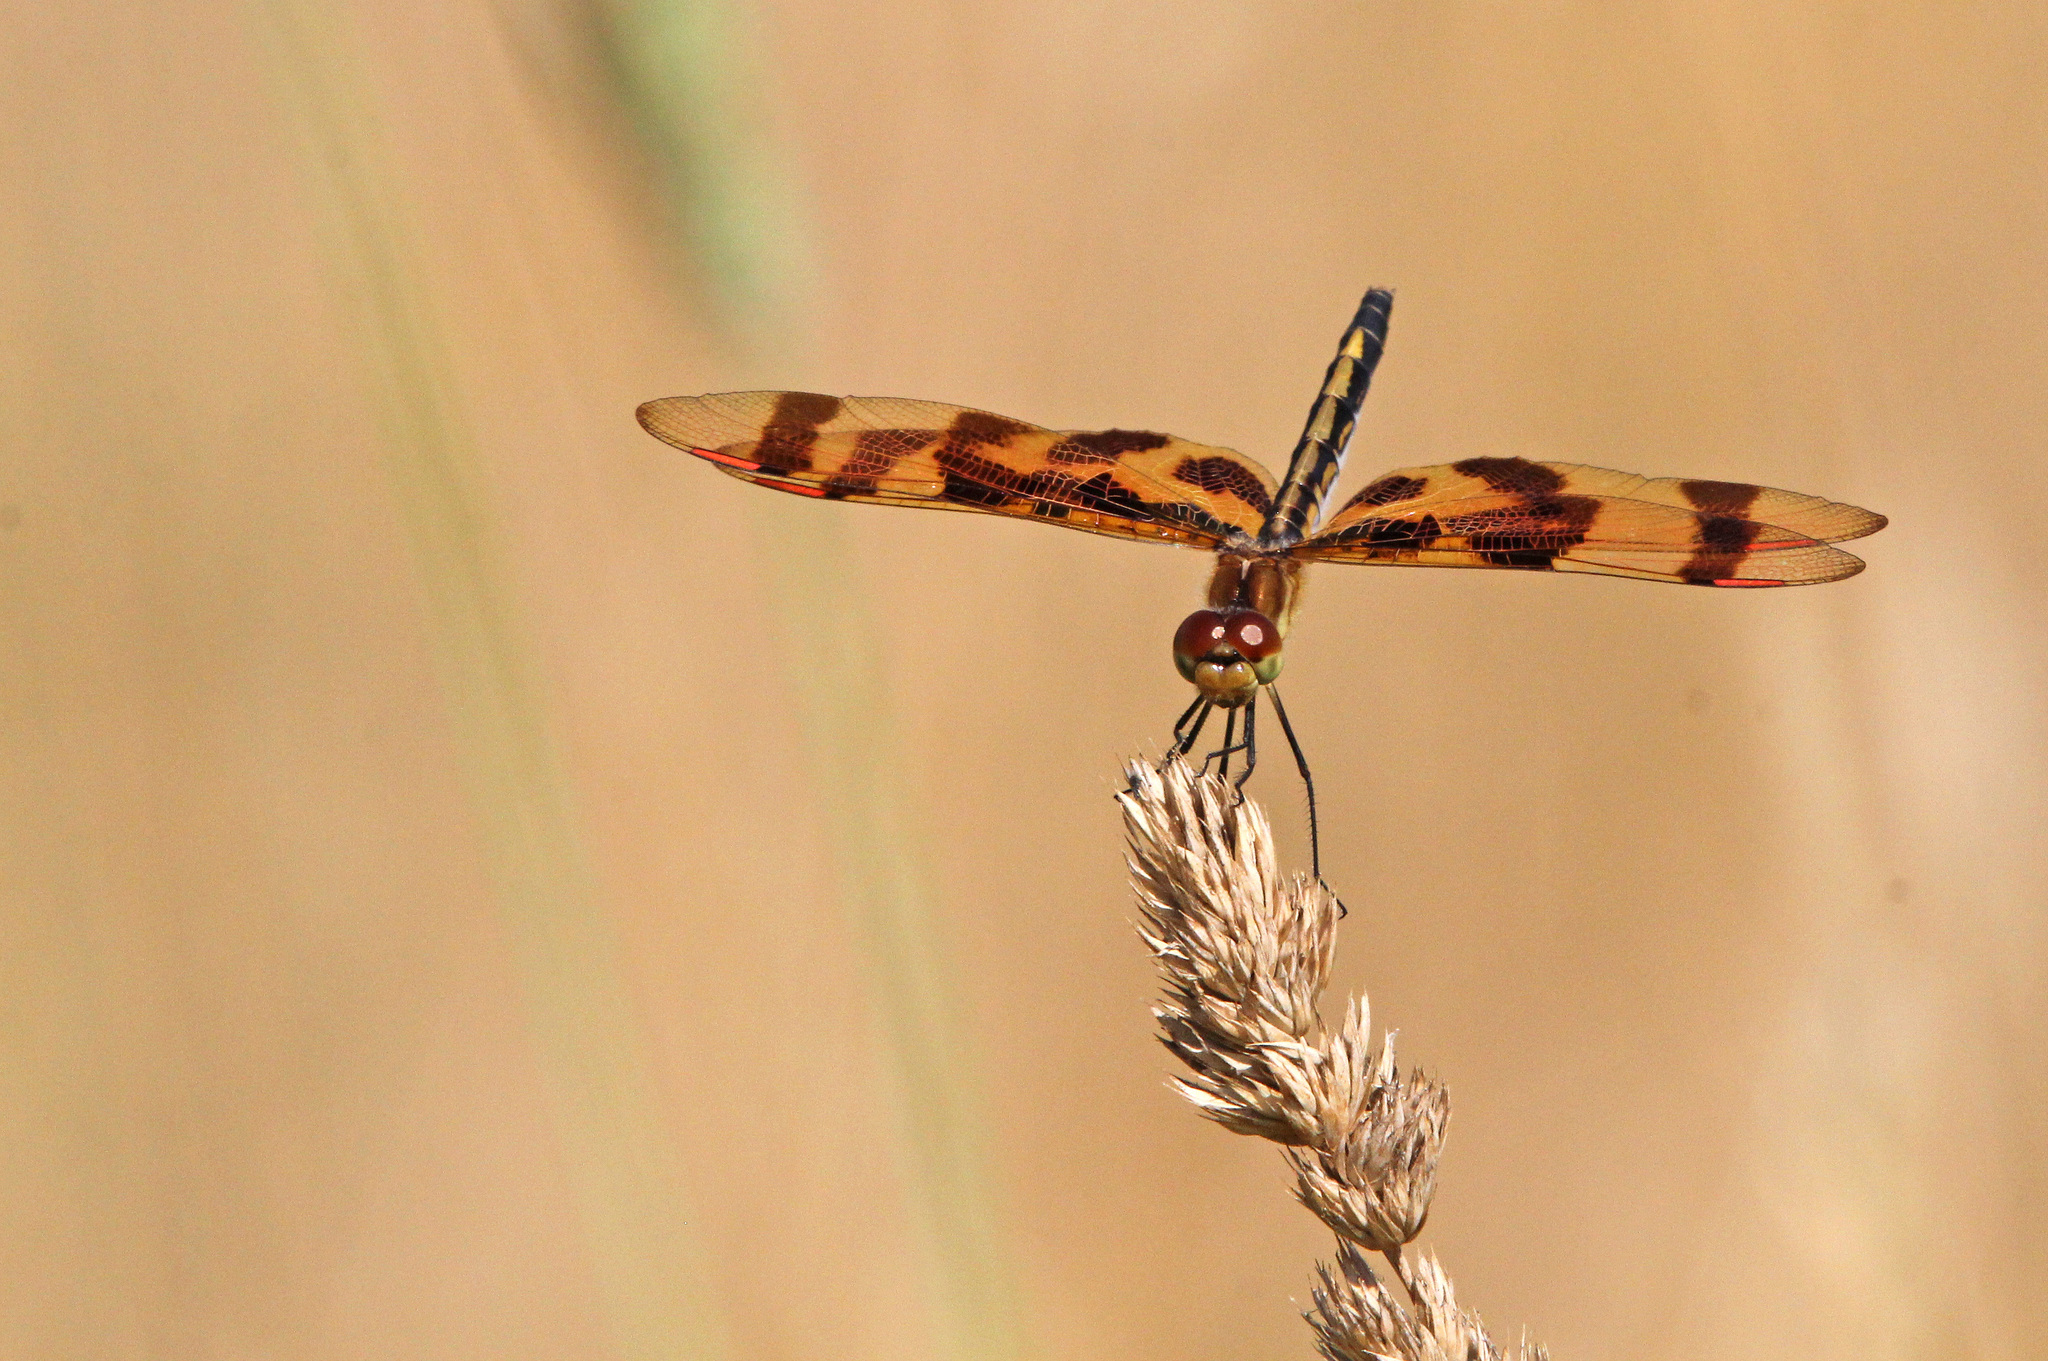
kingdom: Animalia
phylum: Arthropoda
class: Insecta
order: Odonata
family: Libellulidae
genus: Celithemis
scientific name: Celithemis eponina
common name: Halloween pennant
